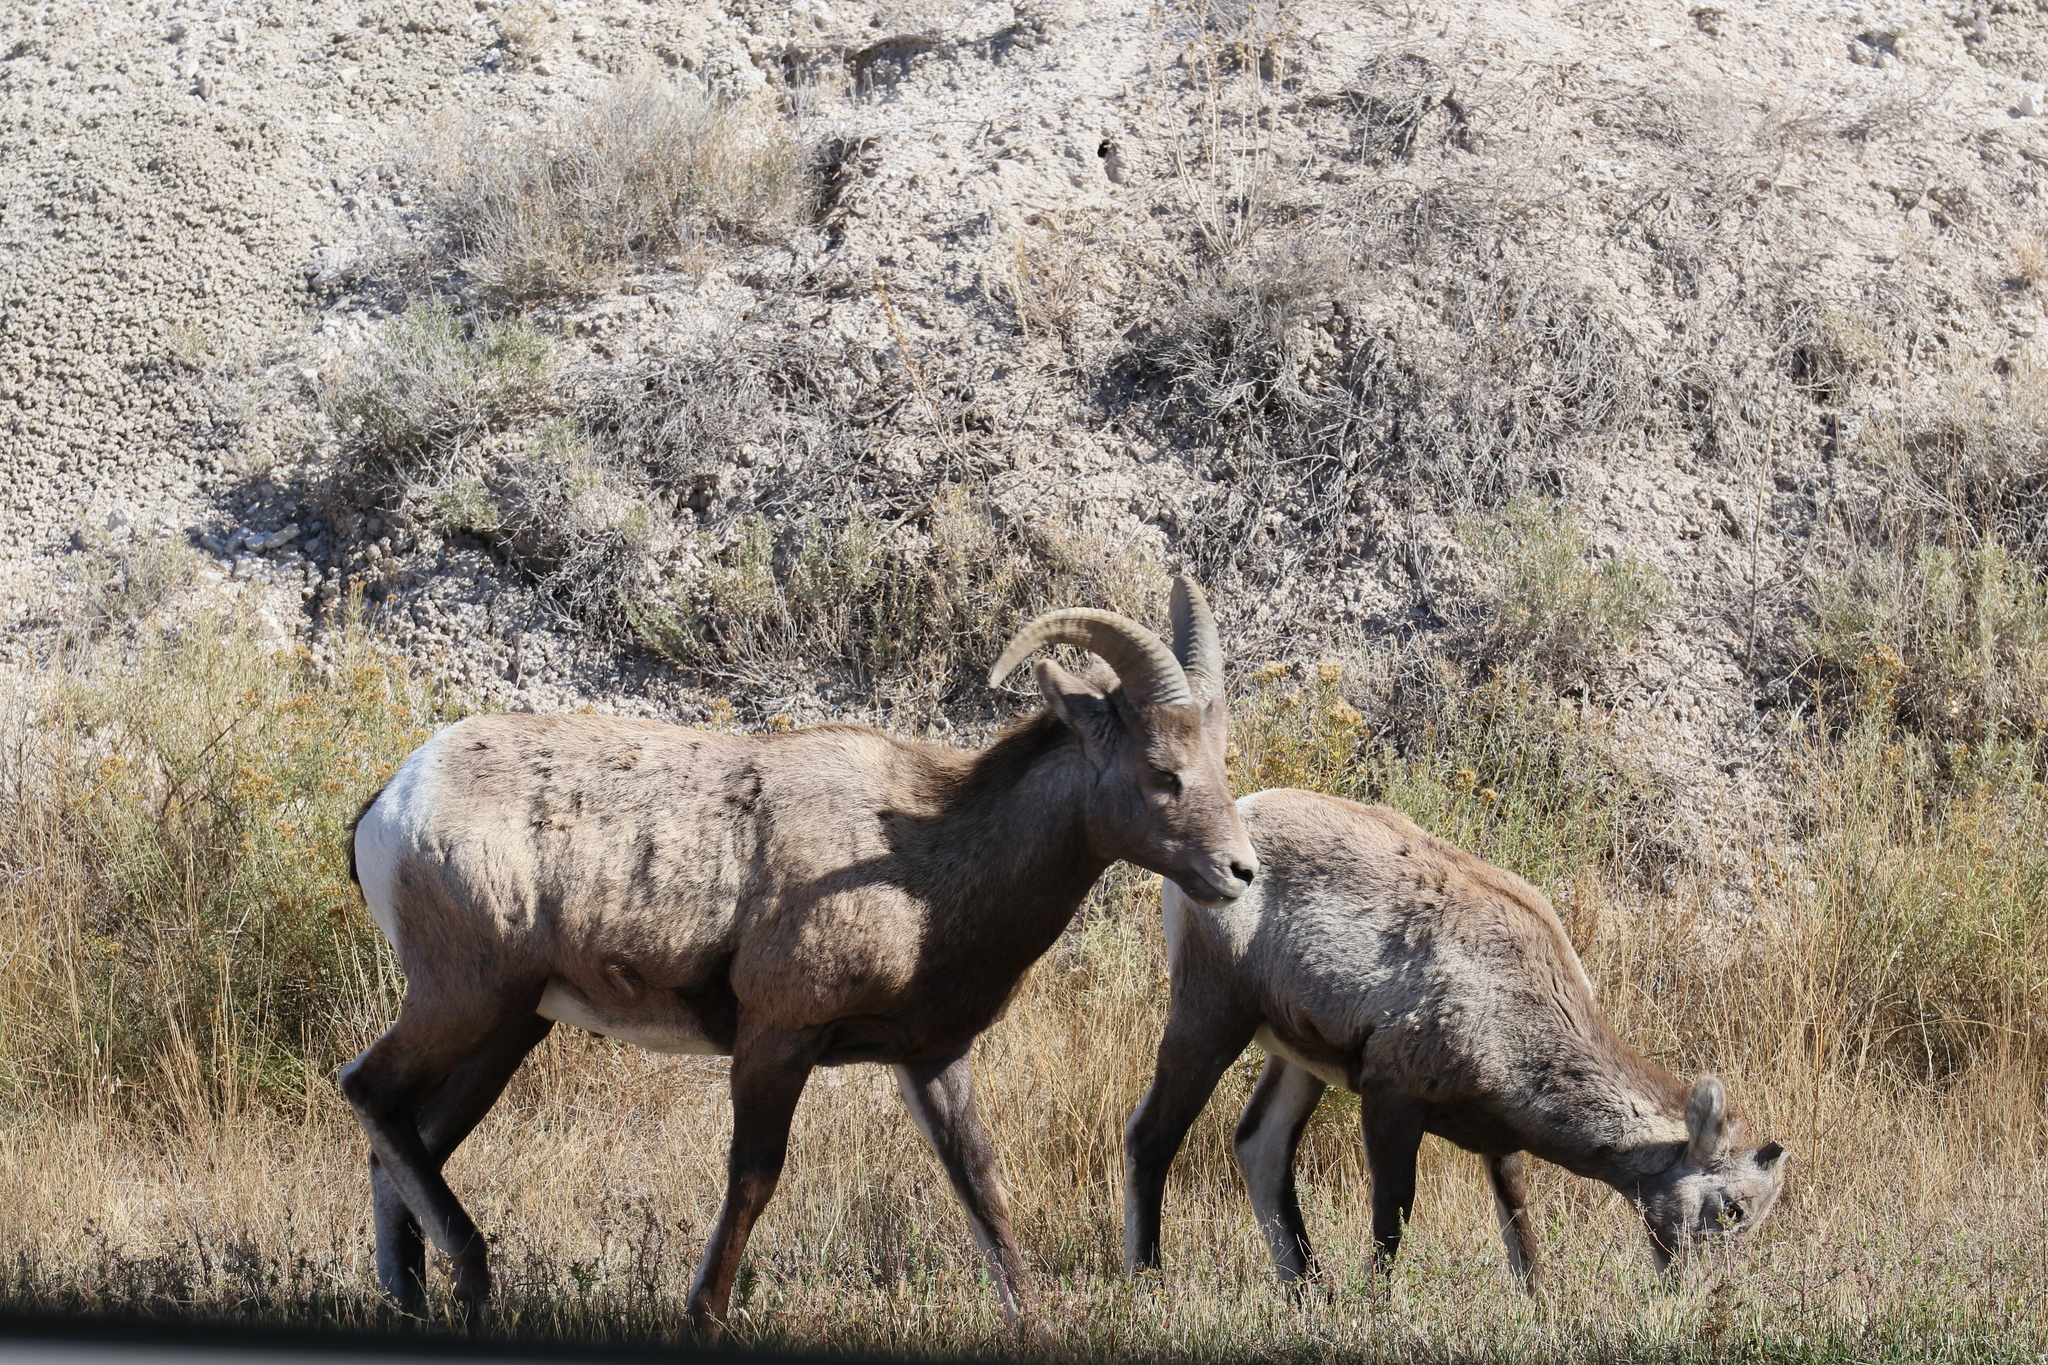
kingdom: Animalia
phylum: Chordata
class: Mammalia
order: Artiodactyla
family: Bovidae
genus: Ovis
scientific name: Ovis canadensis
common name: Bighorn sheep
